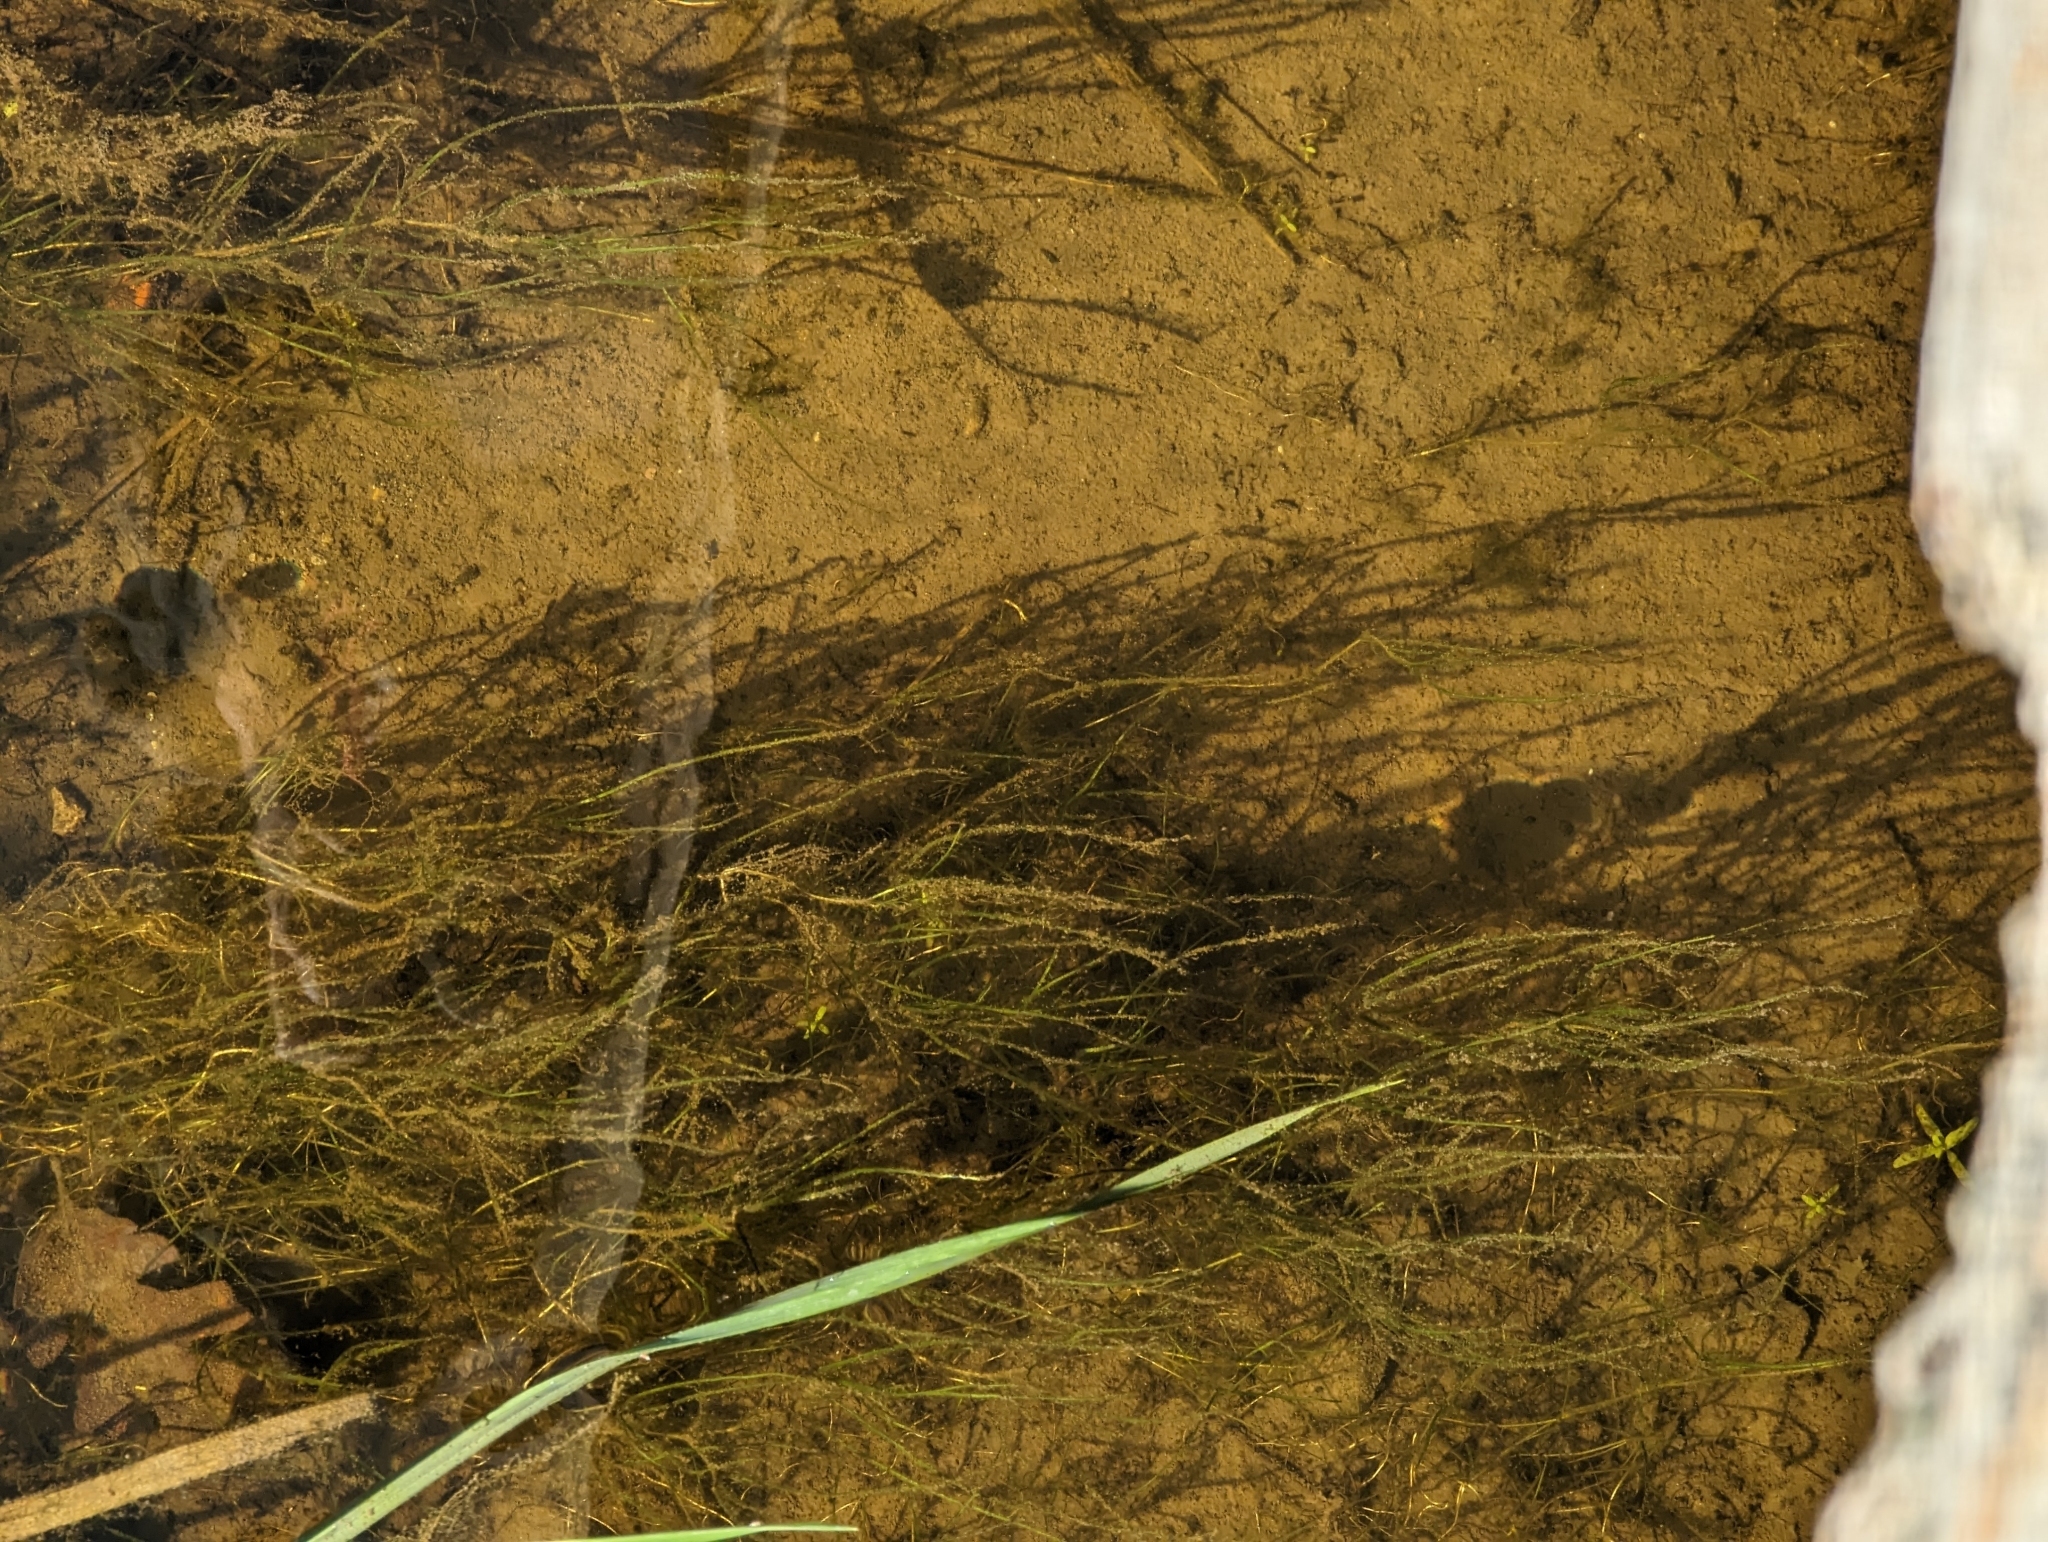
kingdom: Plantae
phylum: Tracheophyta
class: Liliopsida
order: Alismatales
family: Potamogetonaceae
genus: Zannichellia
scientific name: Zannichellia palustris
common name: Horned pondweed
